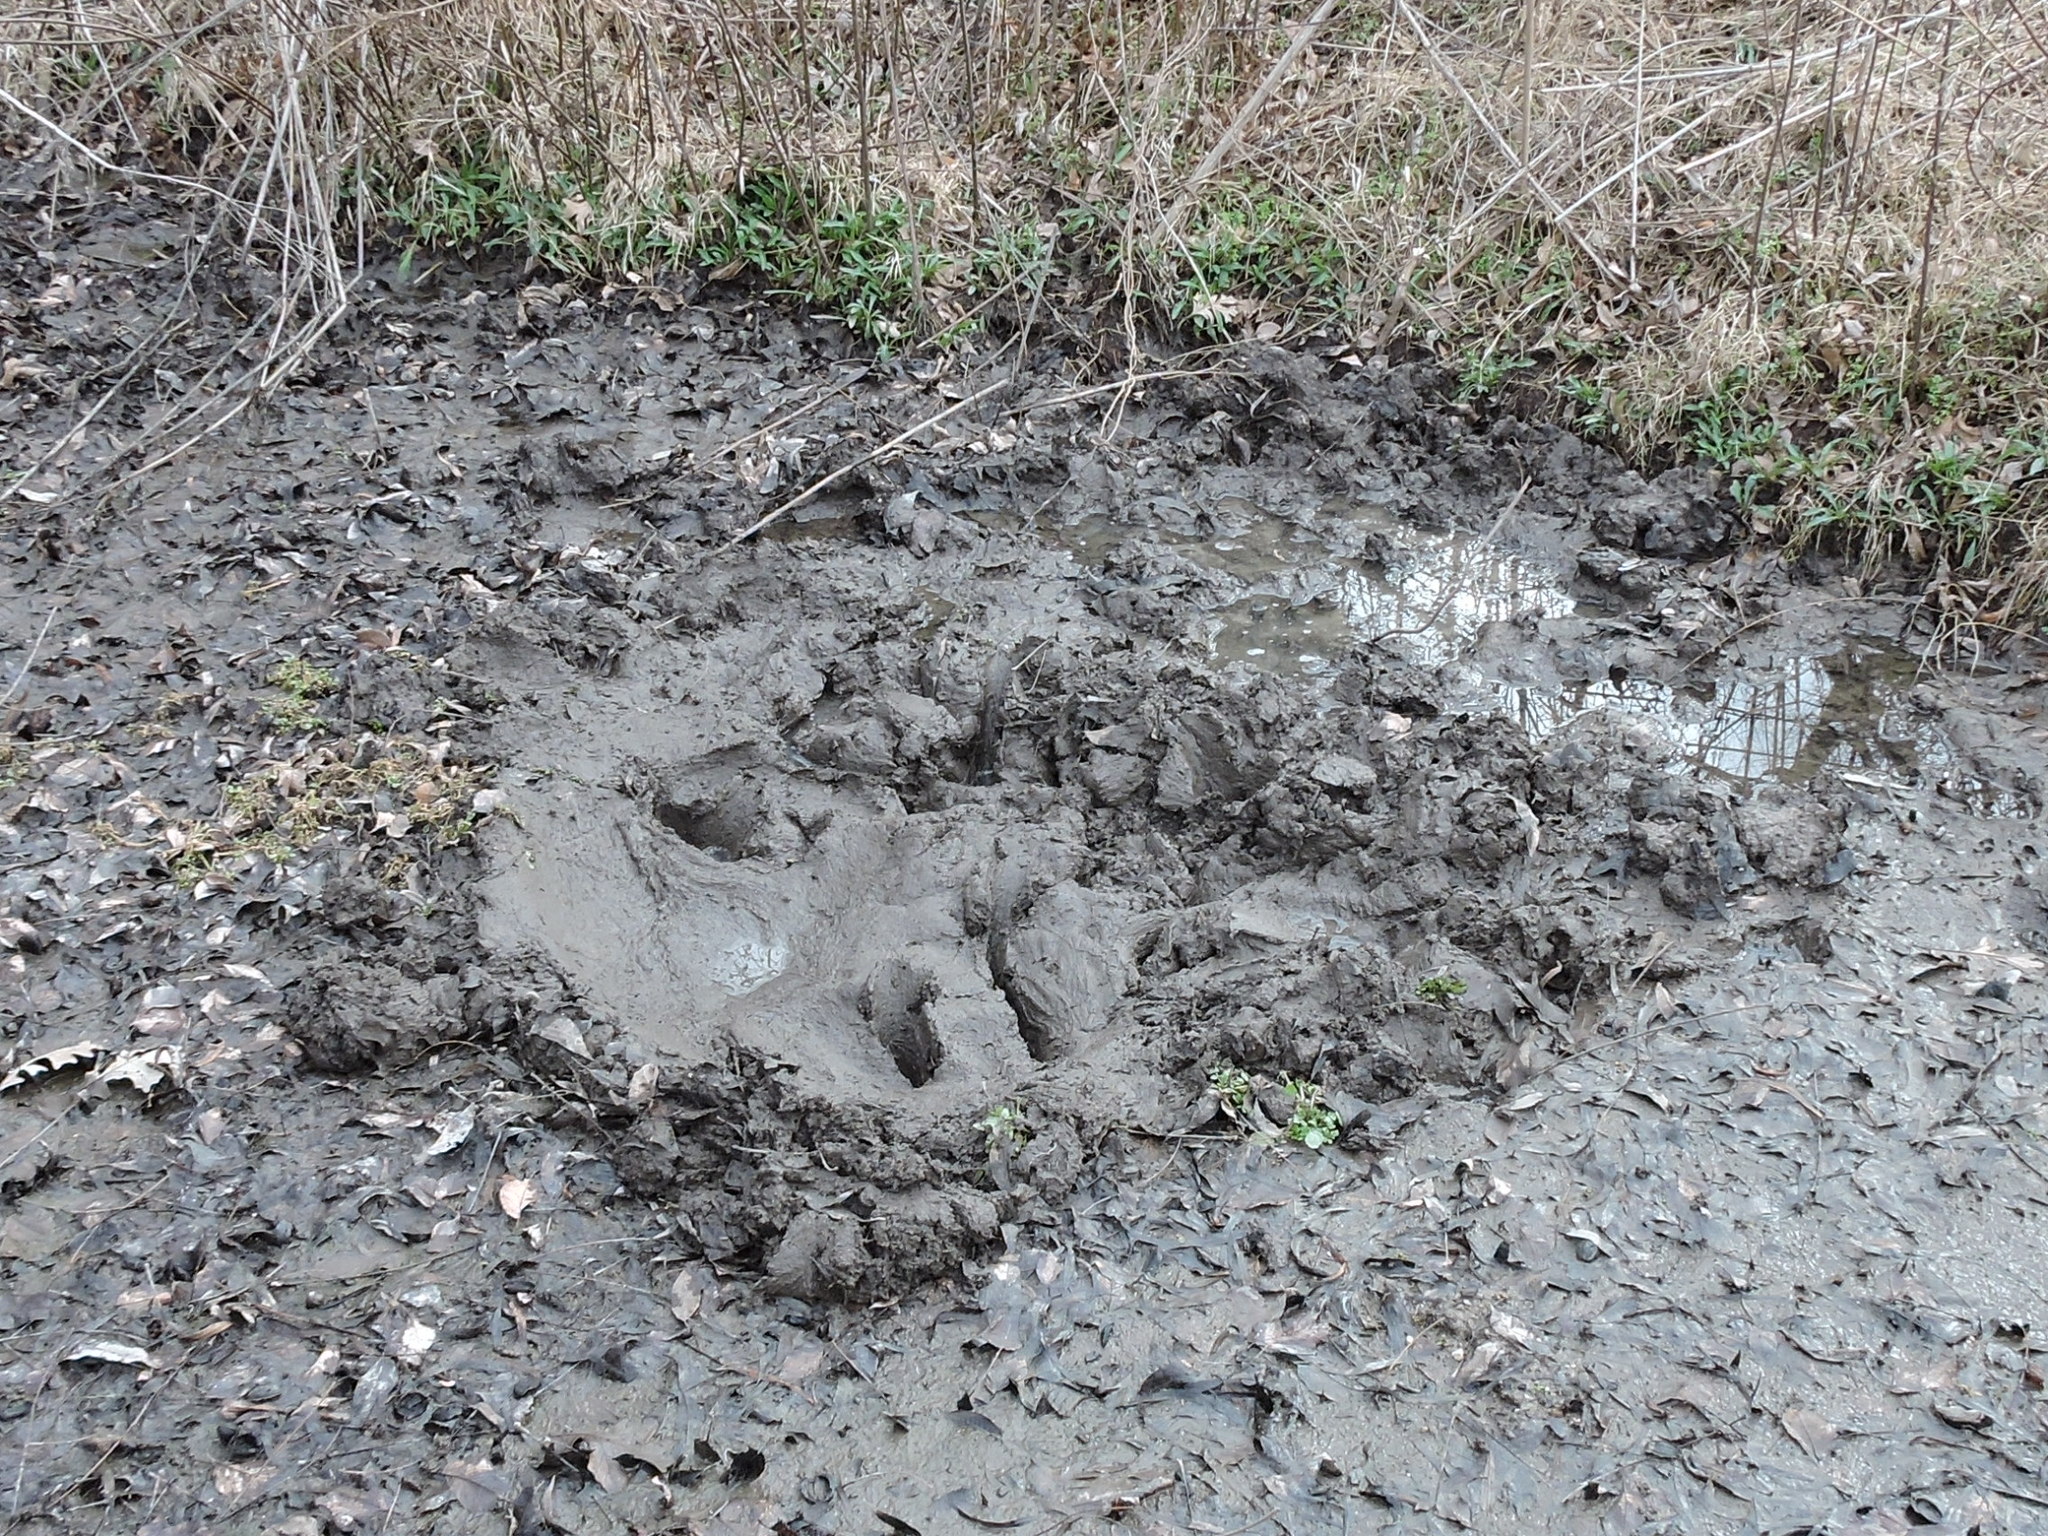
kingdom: Animalia
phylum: Chordata
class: Mammalia
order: Artiodactyla
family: Suidae
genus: Sus
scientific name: Sus scrofa
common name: Wild boar
